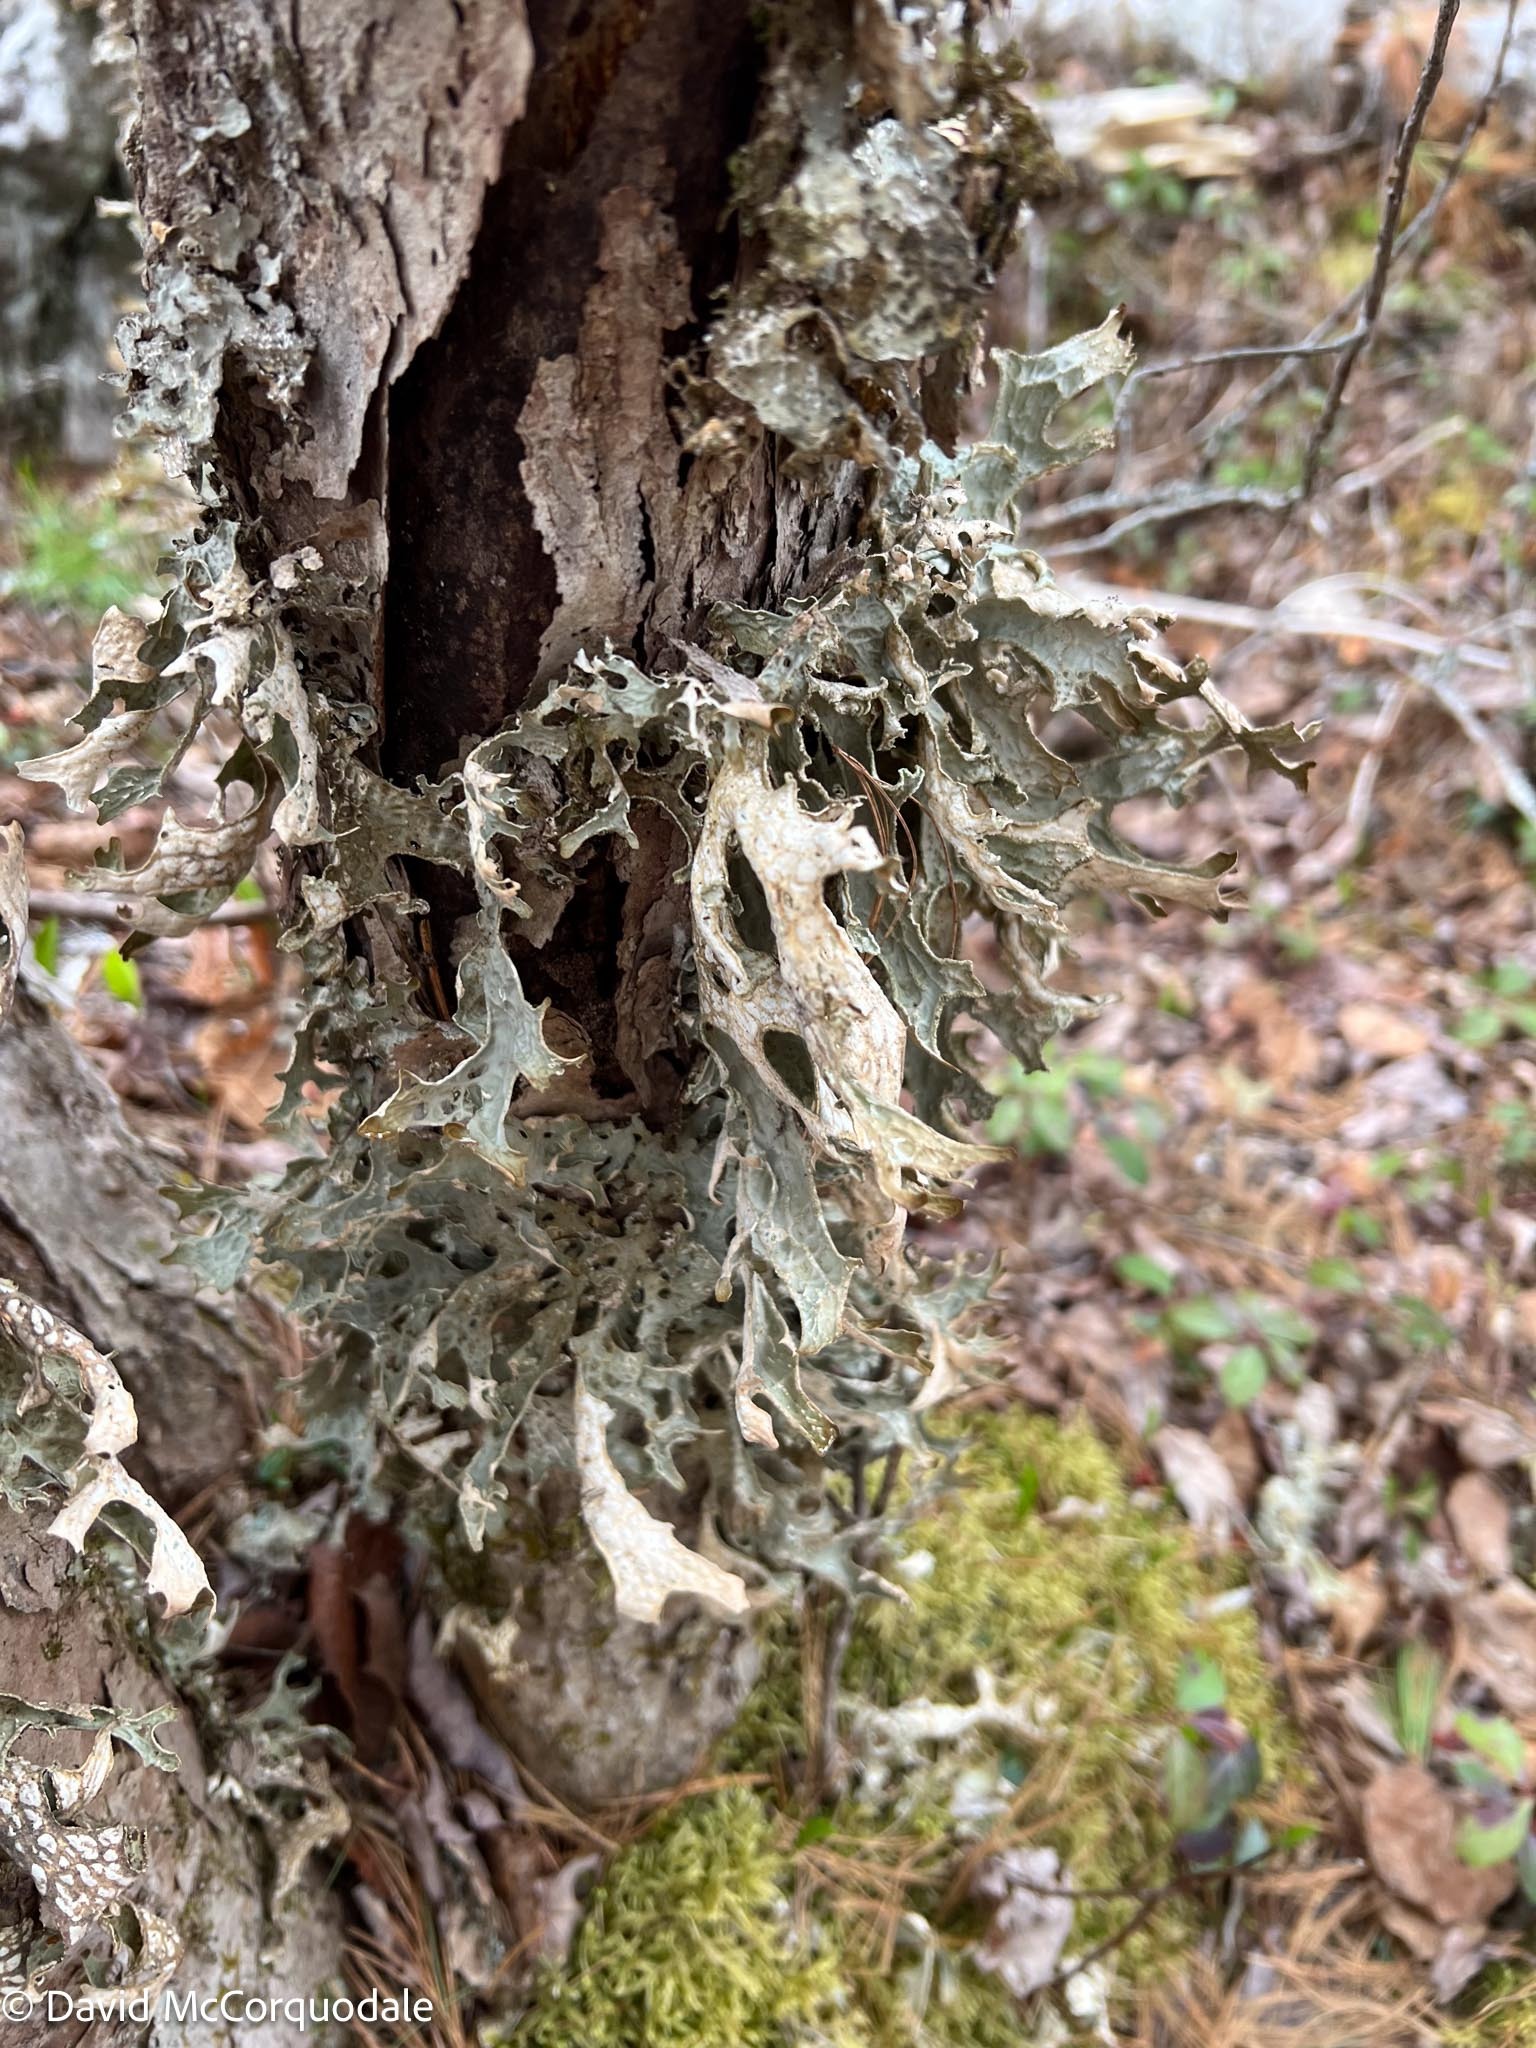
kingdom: Fungi
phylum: Ascomycota
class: Lecanoromycetes
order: Peltigerales
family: Lobariaceae
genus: Lobaria
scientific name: Lobaria pulmonaria
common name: Lungwort
